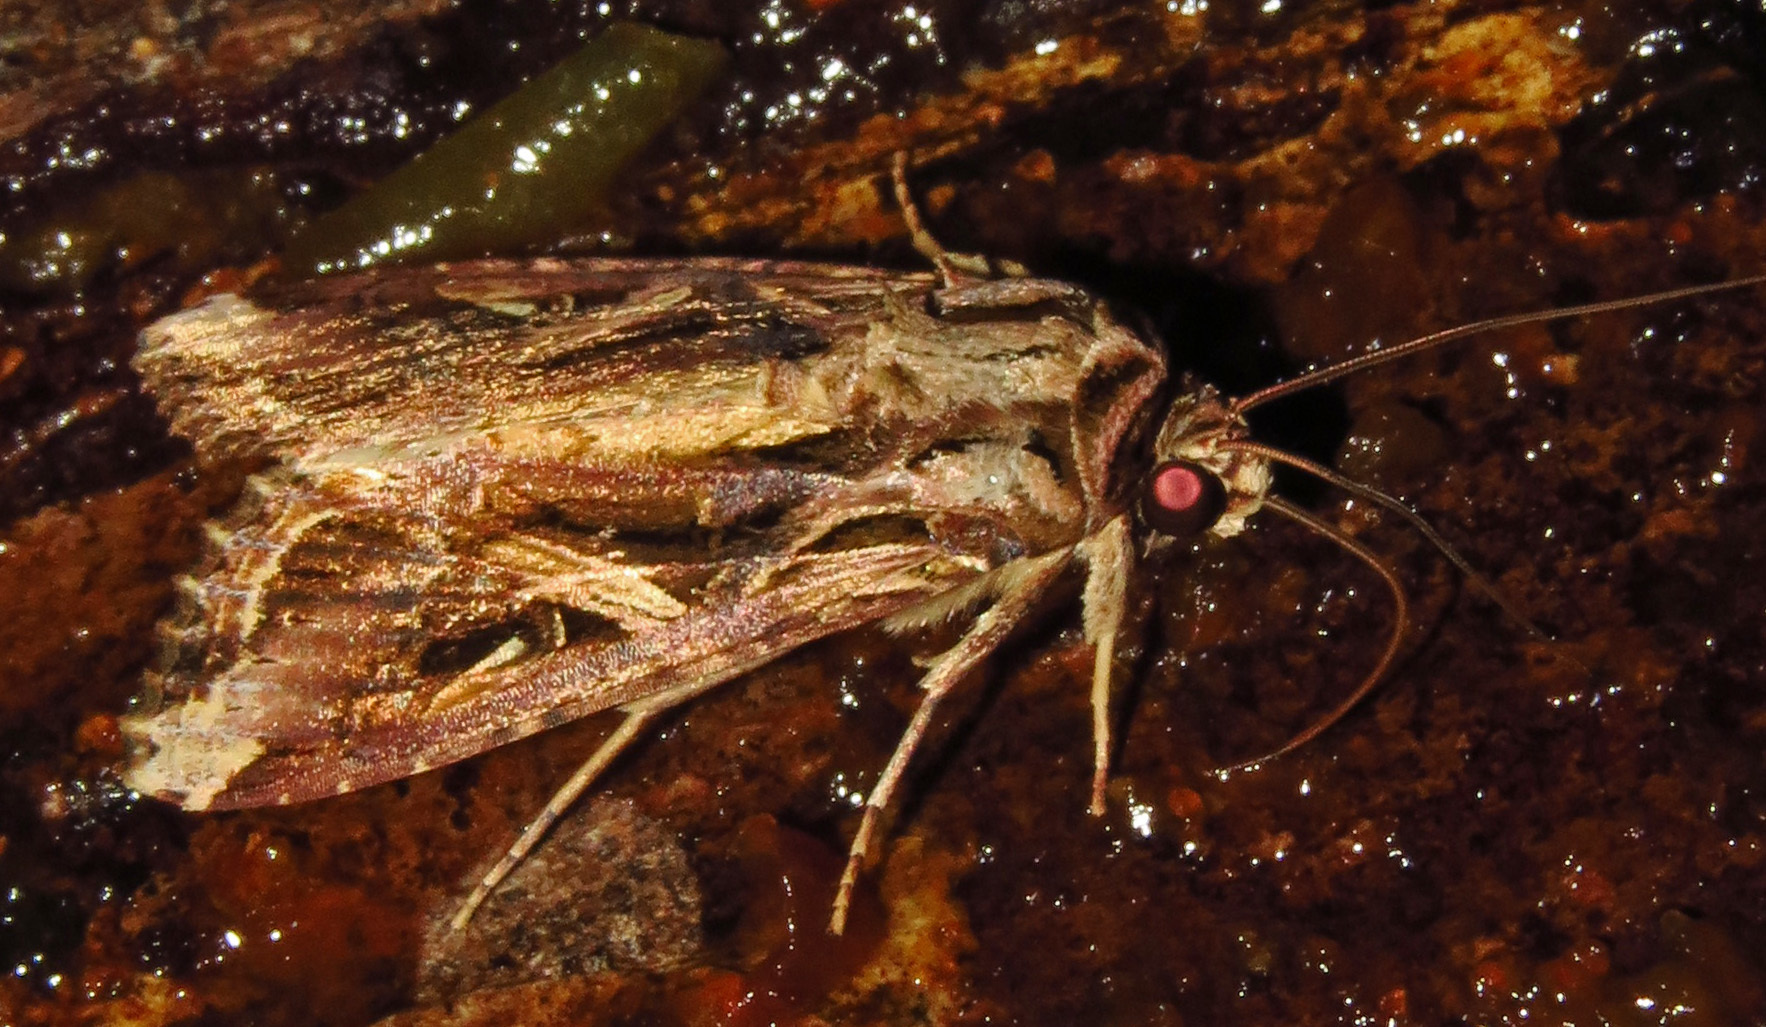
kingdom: Animalia
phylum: Arthropoda
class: Insecta
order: Lepidoptera
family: Noctuidae
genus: Spodoptera
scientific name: Spodoptera dolichos
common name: Sweetpotato armyworm
